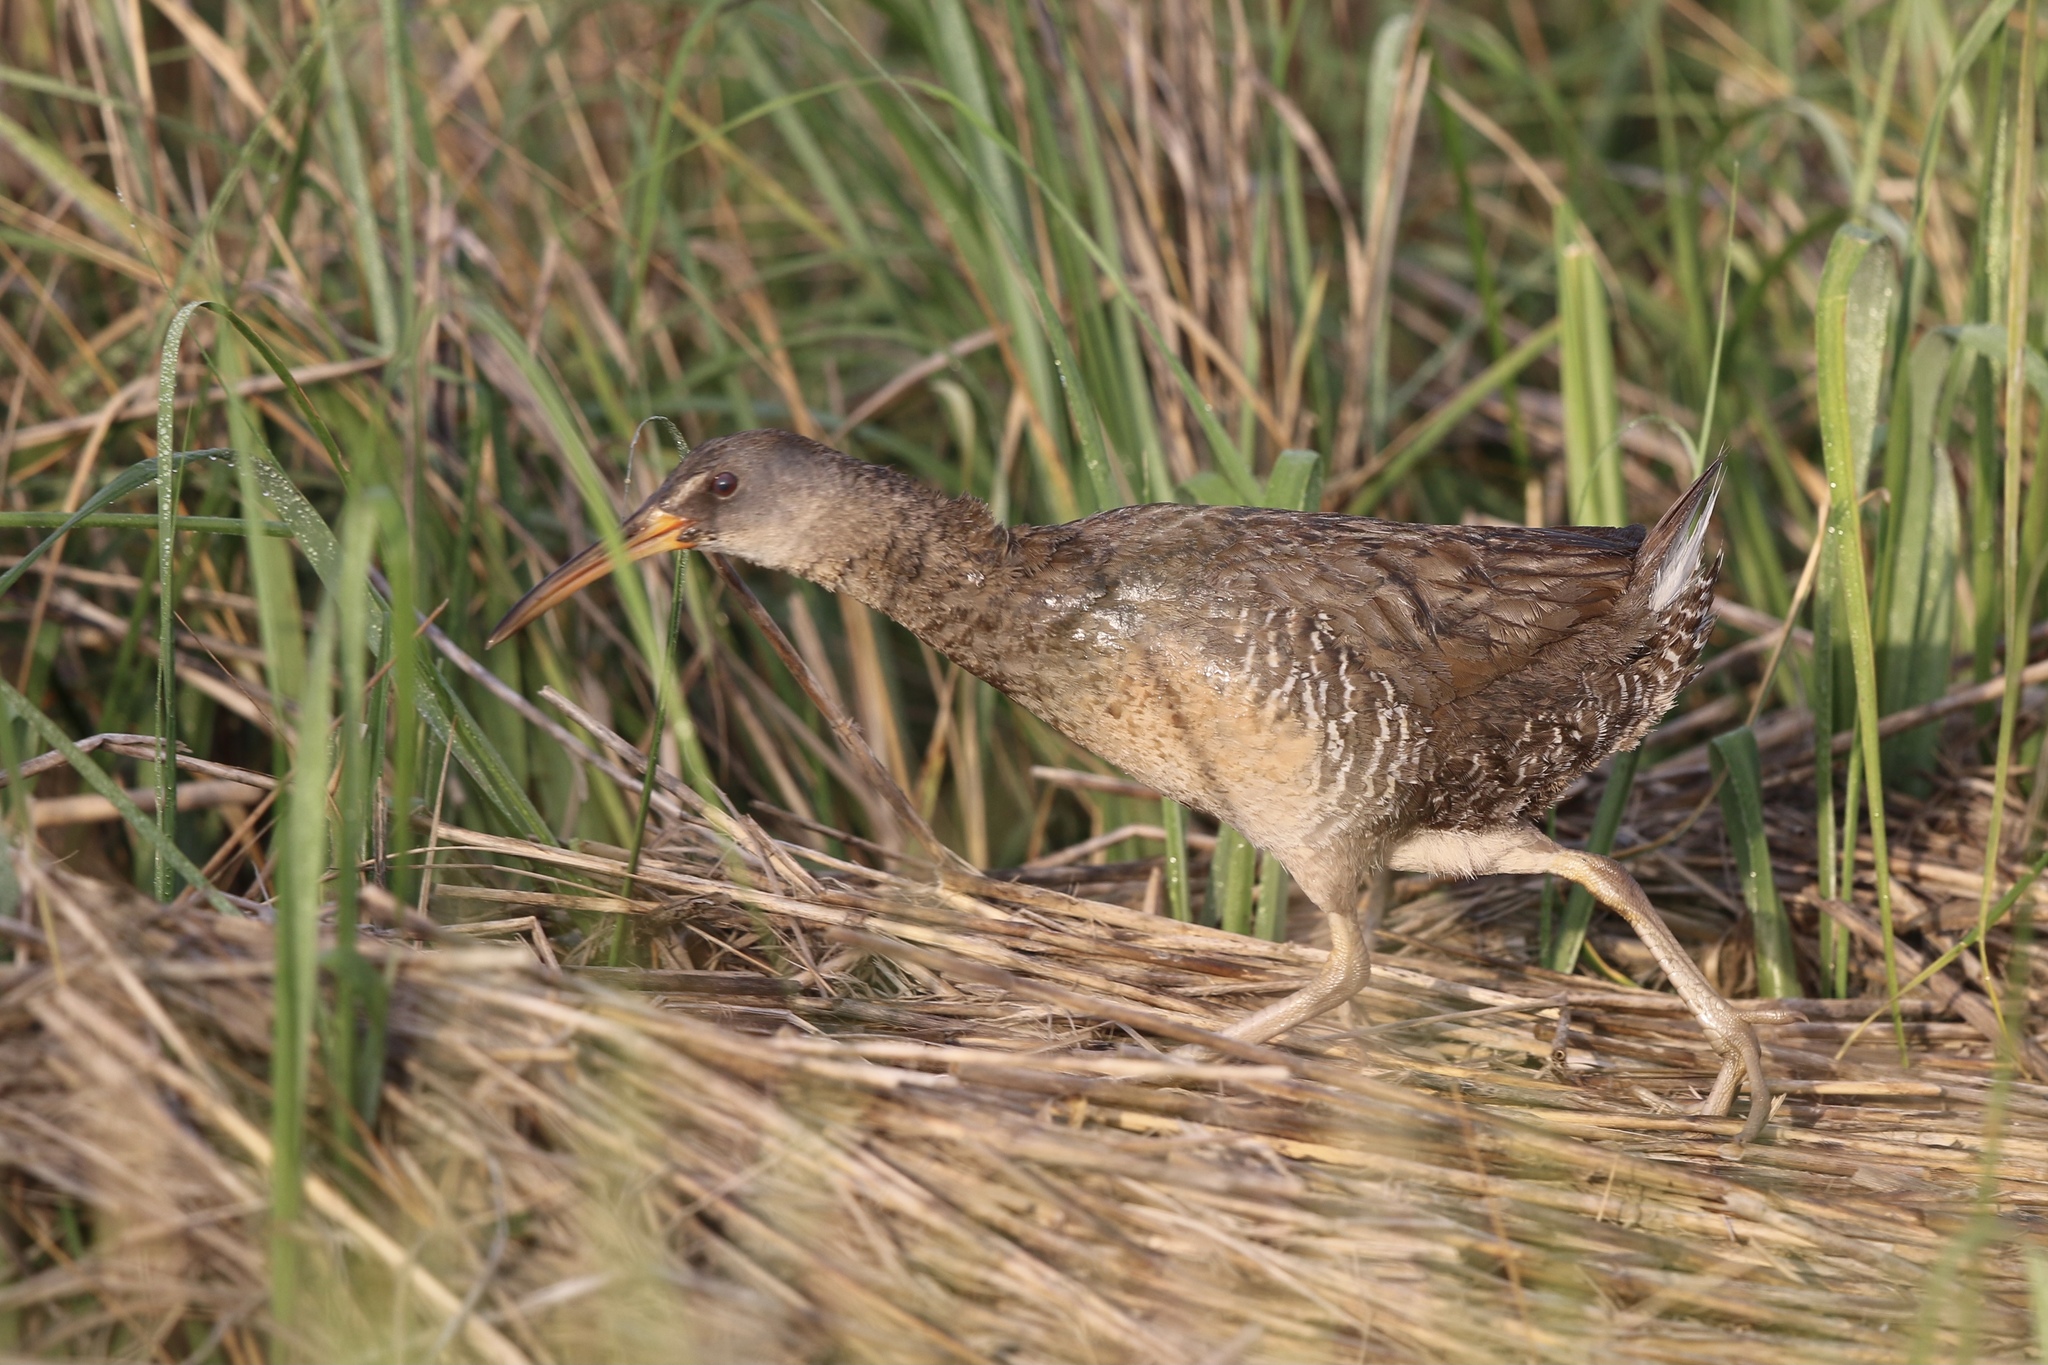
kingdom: Animalia
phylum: Chordata
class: Aves
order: Gruiformes
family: Rallidae
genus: Rallus
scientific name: Rallus crepitans
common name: Clapper rail
